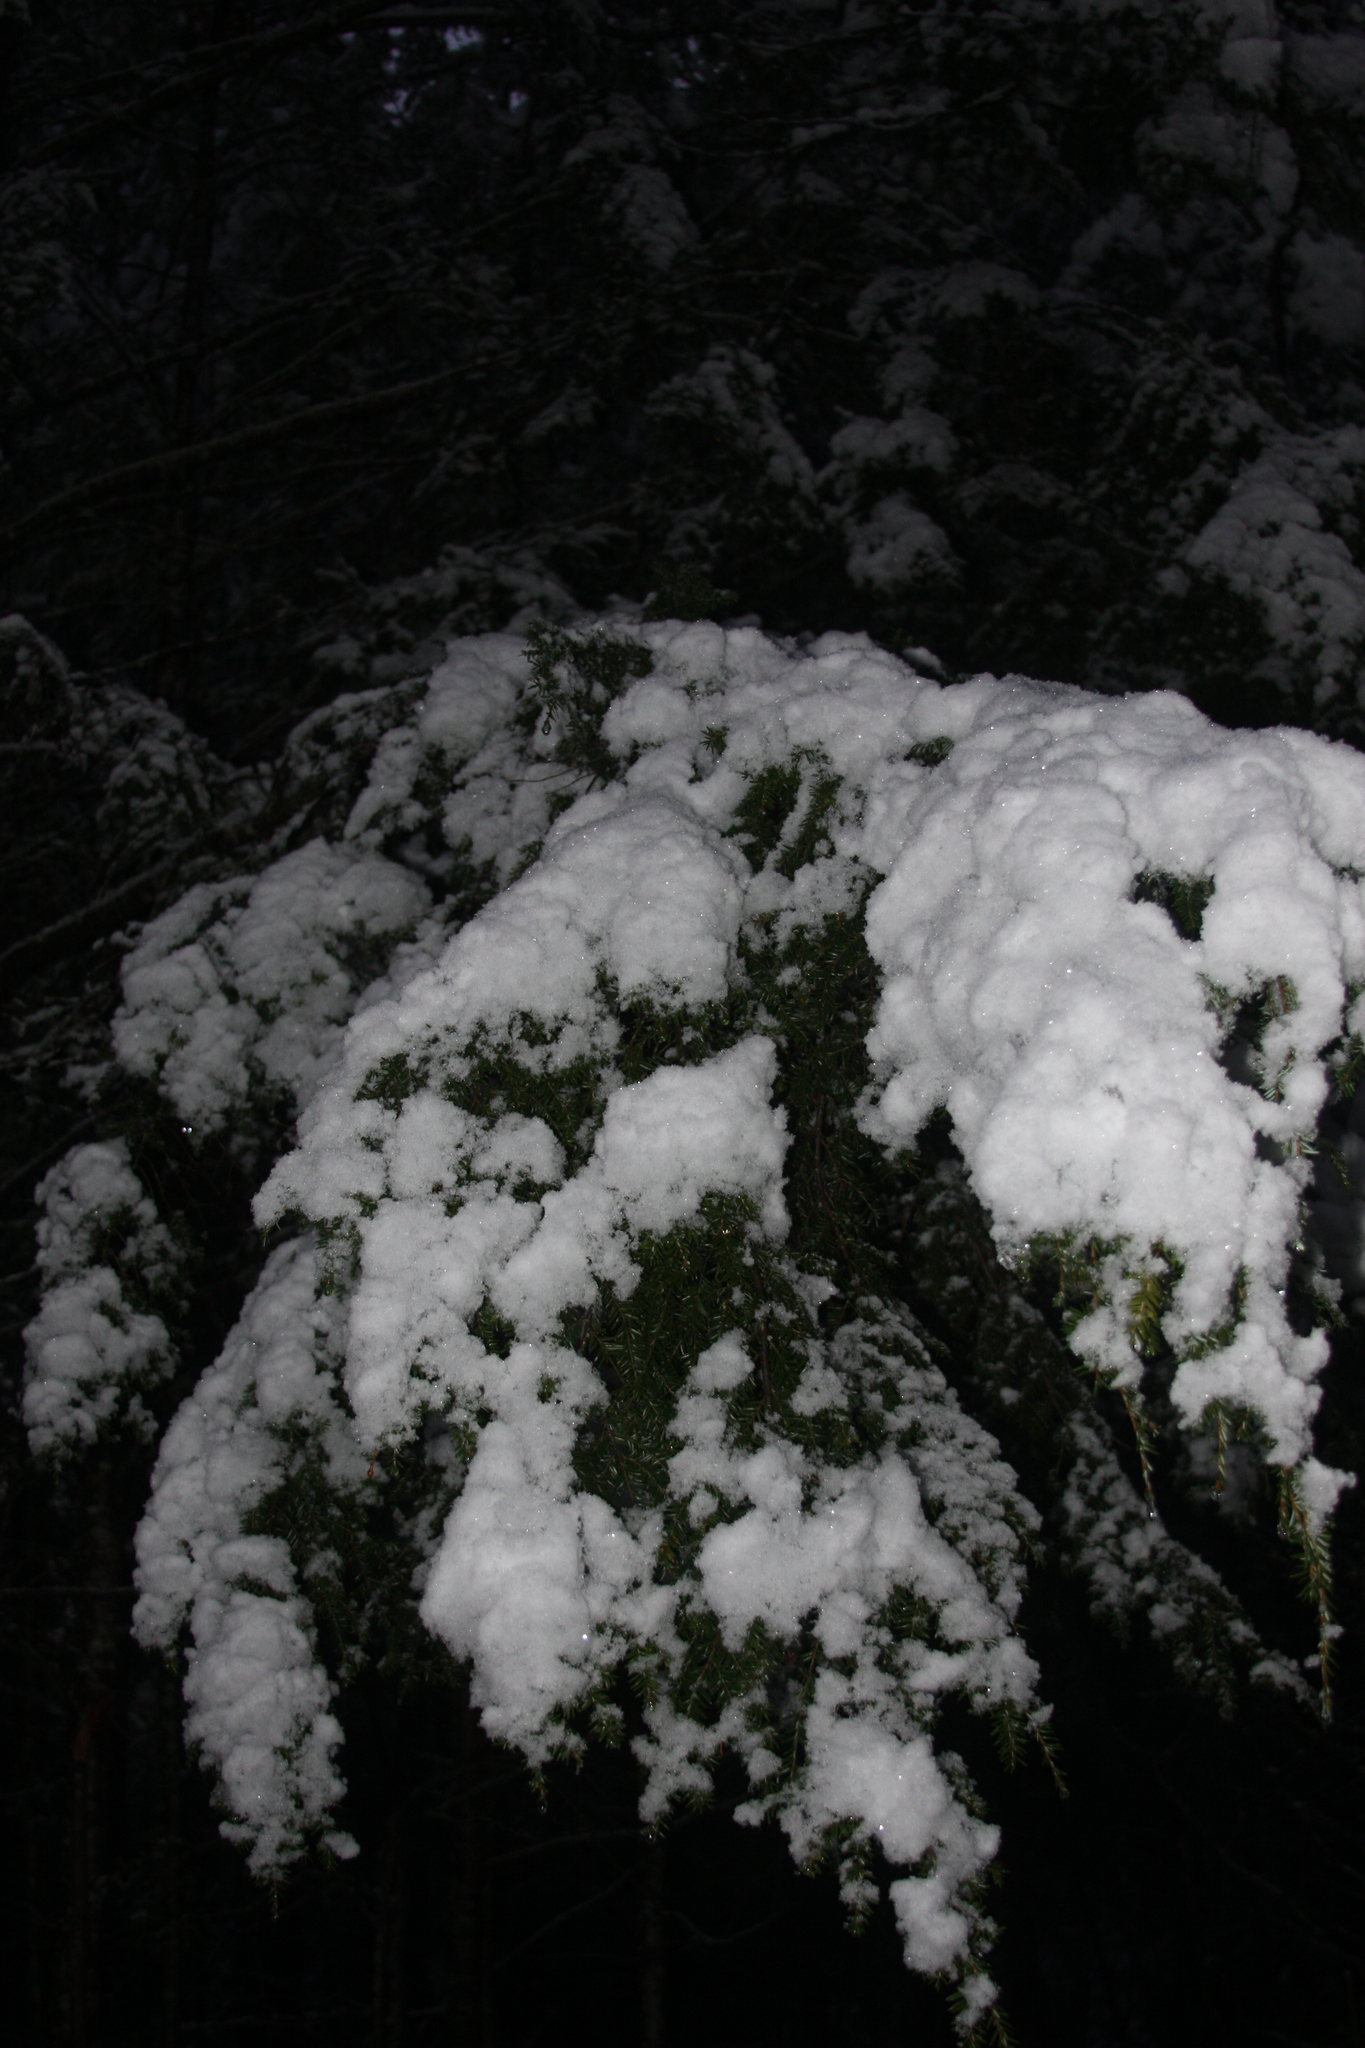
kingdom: Plantae
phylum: Tracheophyta
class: Pinopsida
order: Pinales
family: Pinaceae
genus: Tsuga
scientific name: Tsuga canadensis
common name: Eastern hemlock
